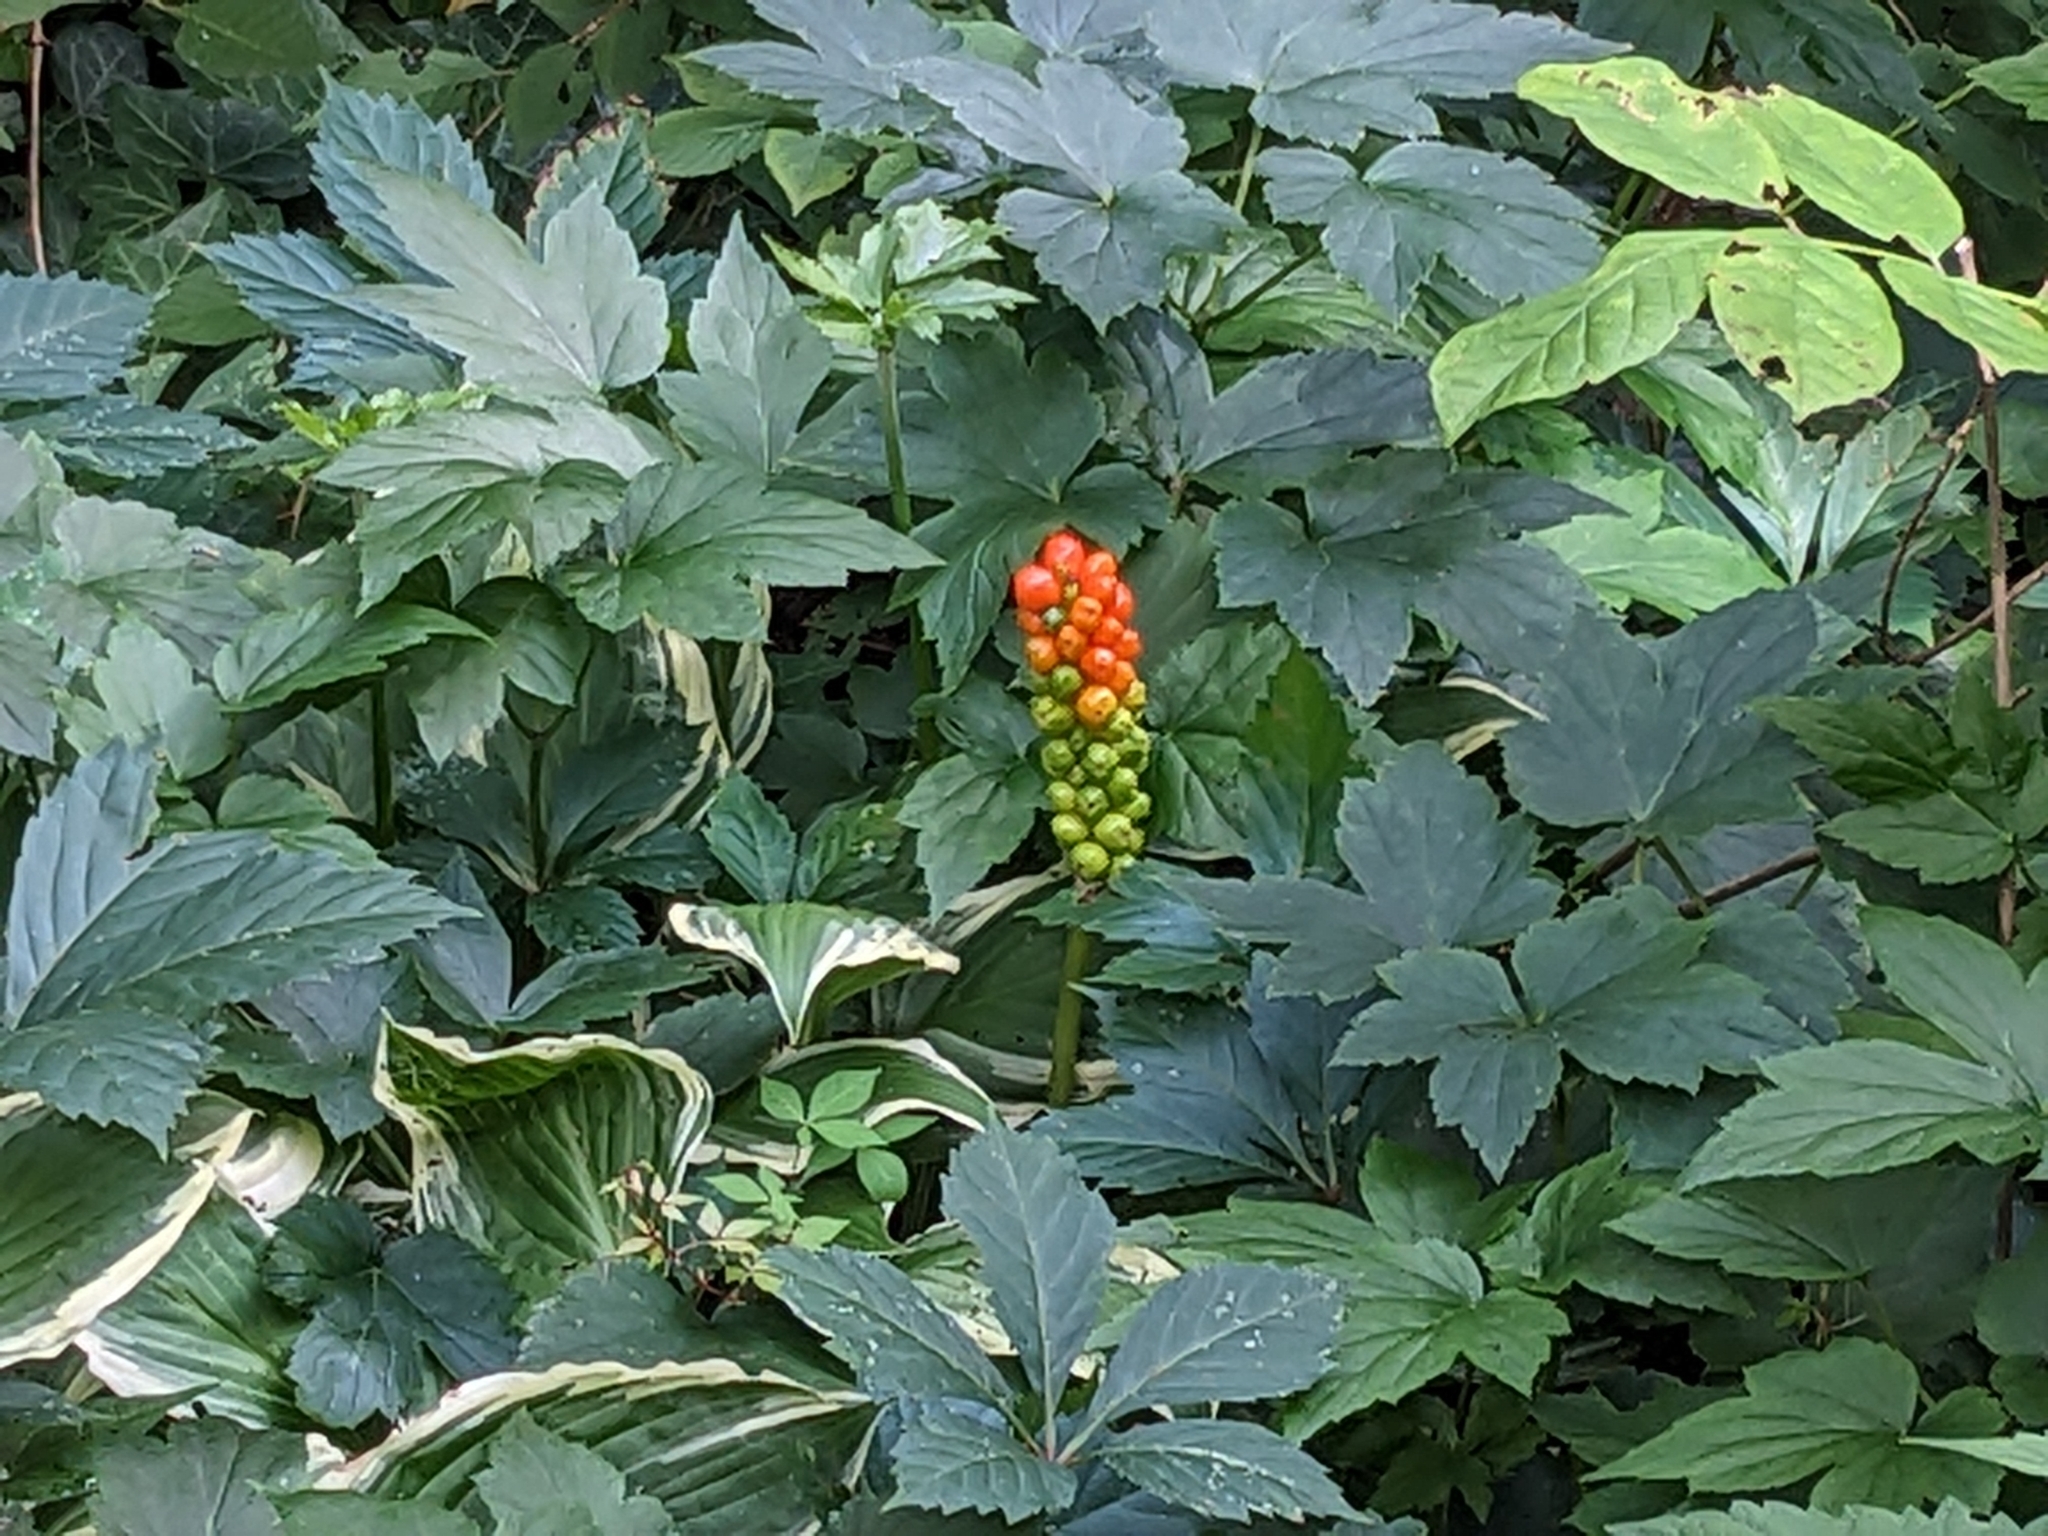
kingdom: Plantae
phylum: Tracheophyta
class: Liliopsida
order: Alismatales
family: Araceae
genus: Arum
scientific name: Arum italicum
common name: Italian lords-and-ladies
